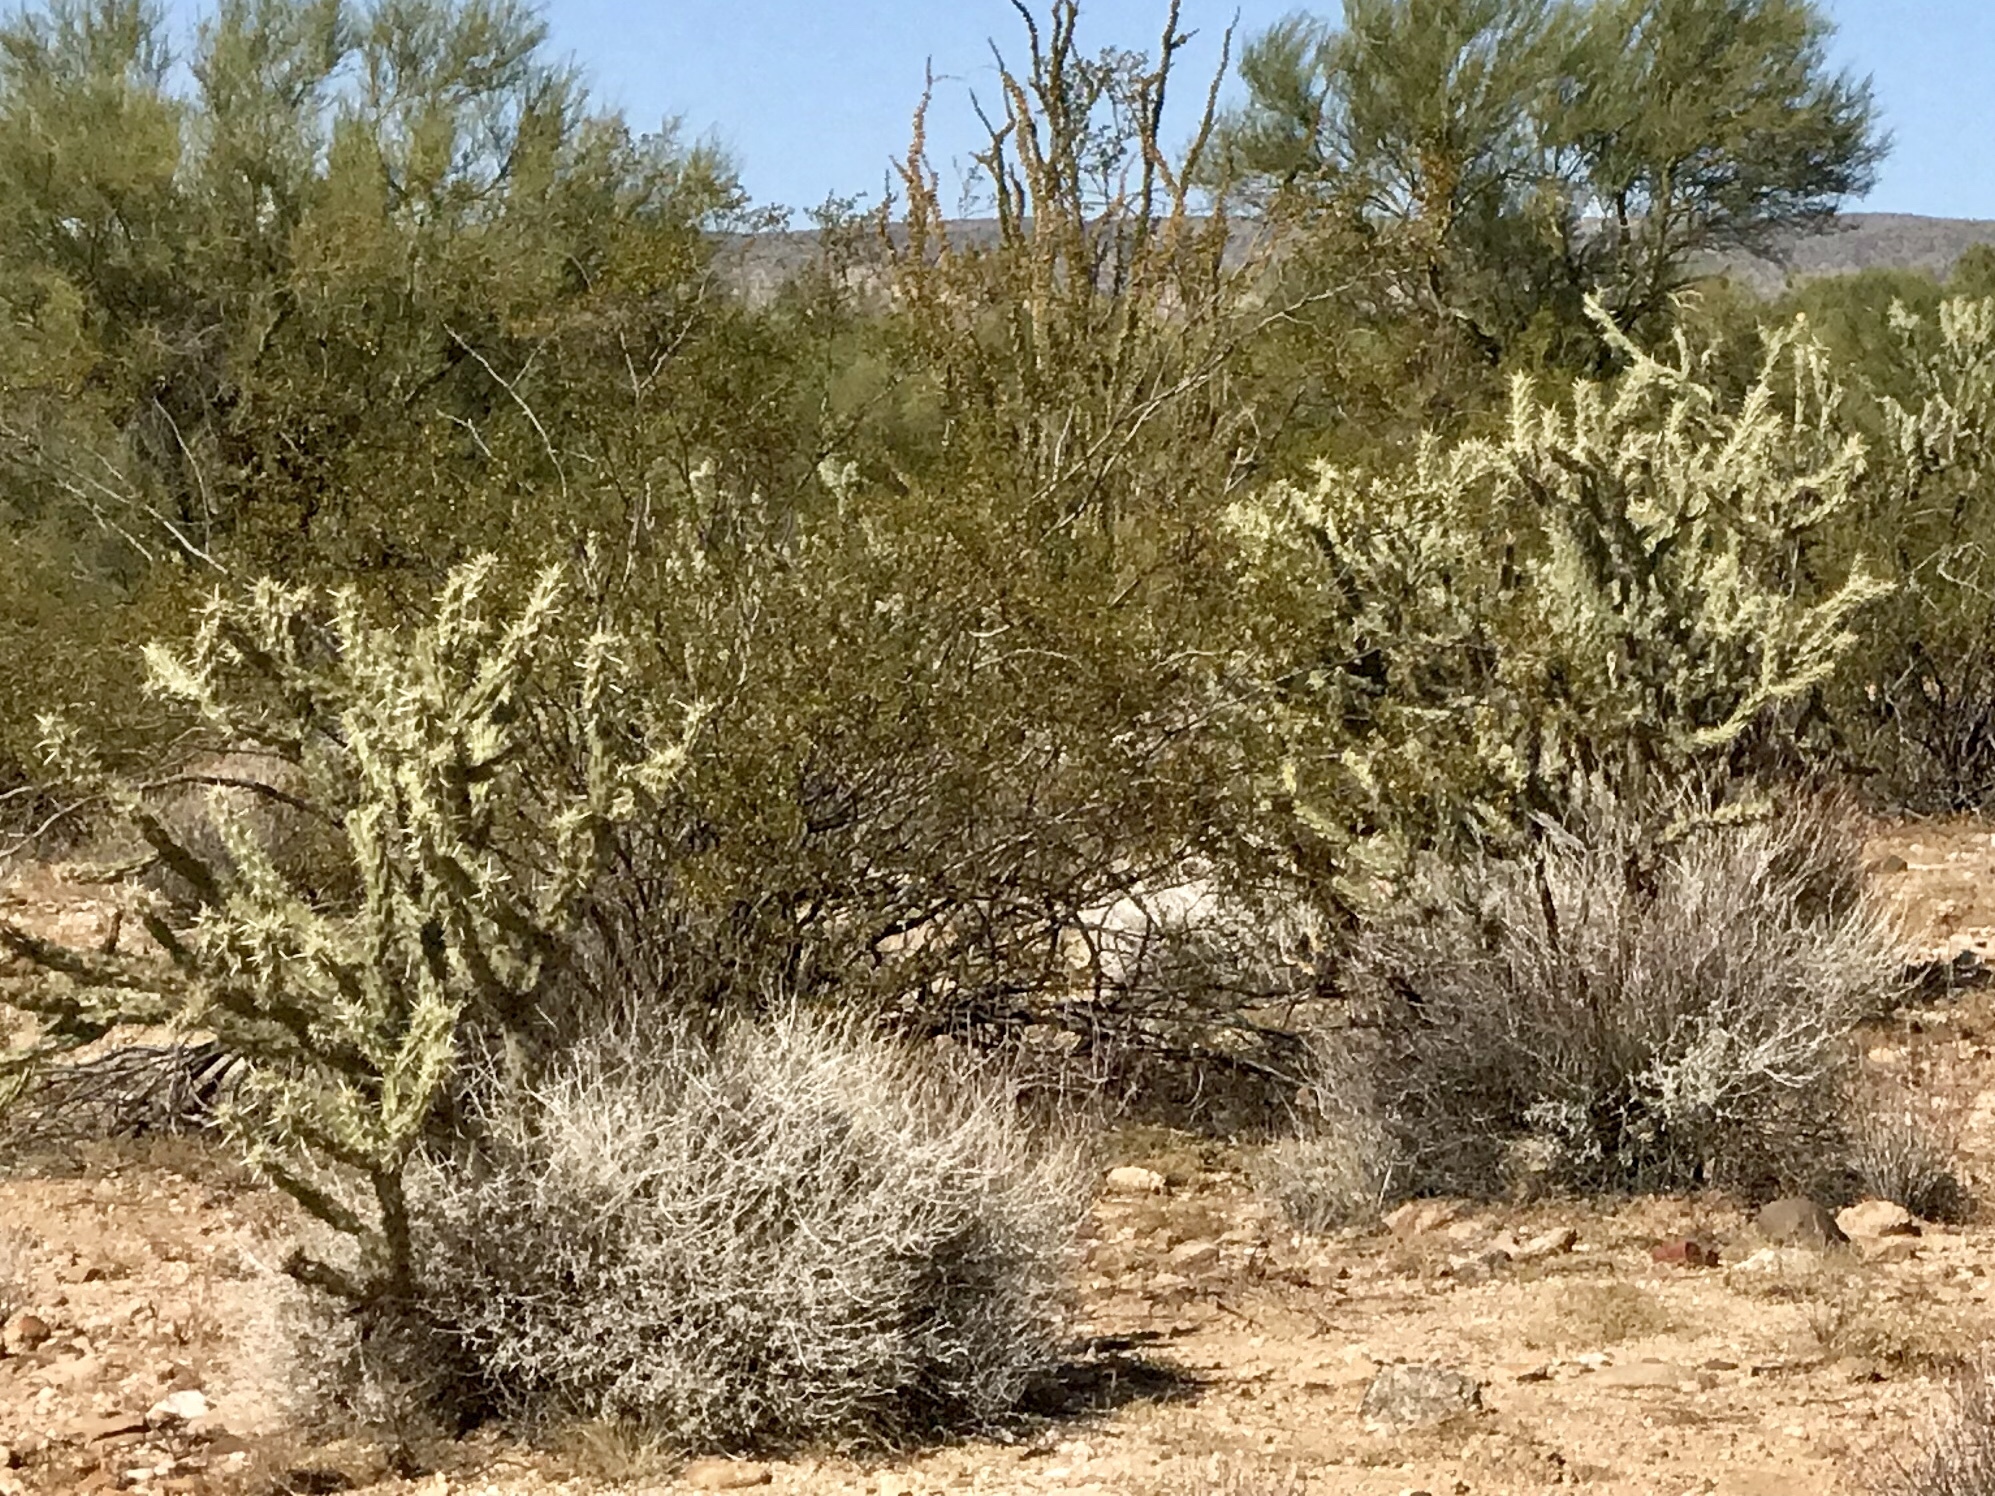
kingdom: Plantae
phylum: Tracheophyta
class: Magnoliopsida
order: Caryophyllales
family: Cactaceae
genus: Cylindropuntia
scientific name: Cylindropuntia acanthocarpa
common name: Buckhorn cholla
